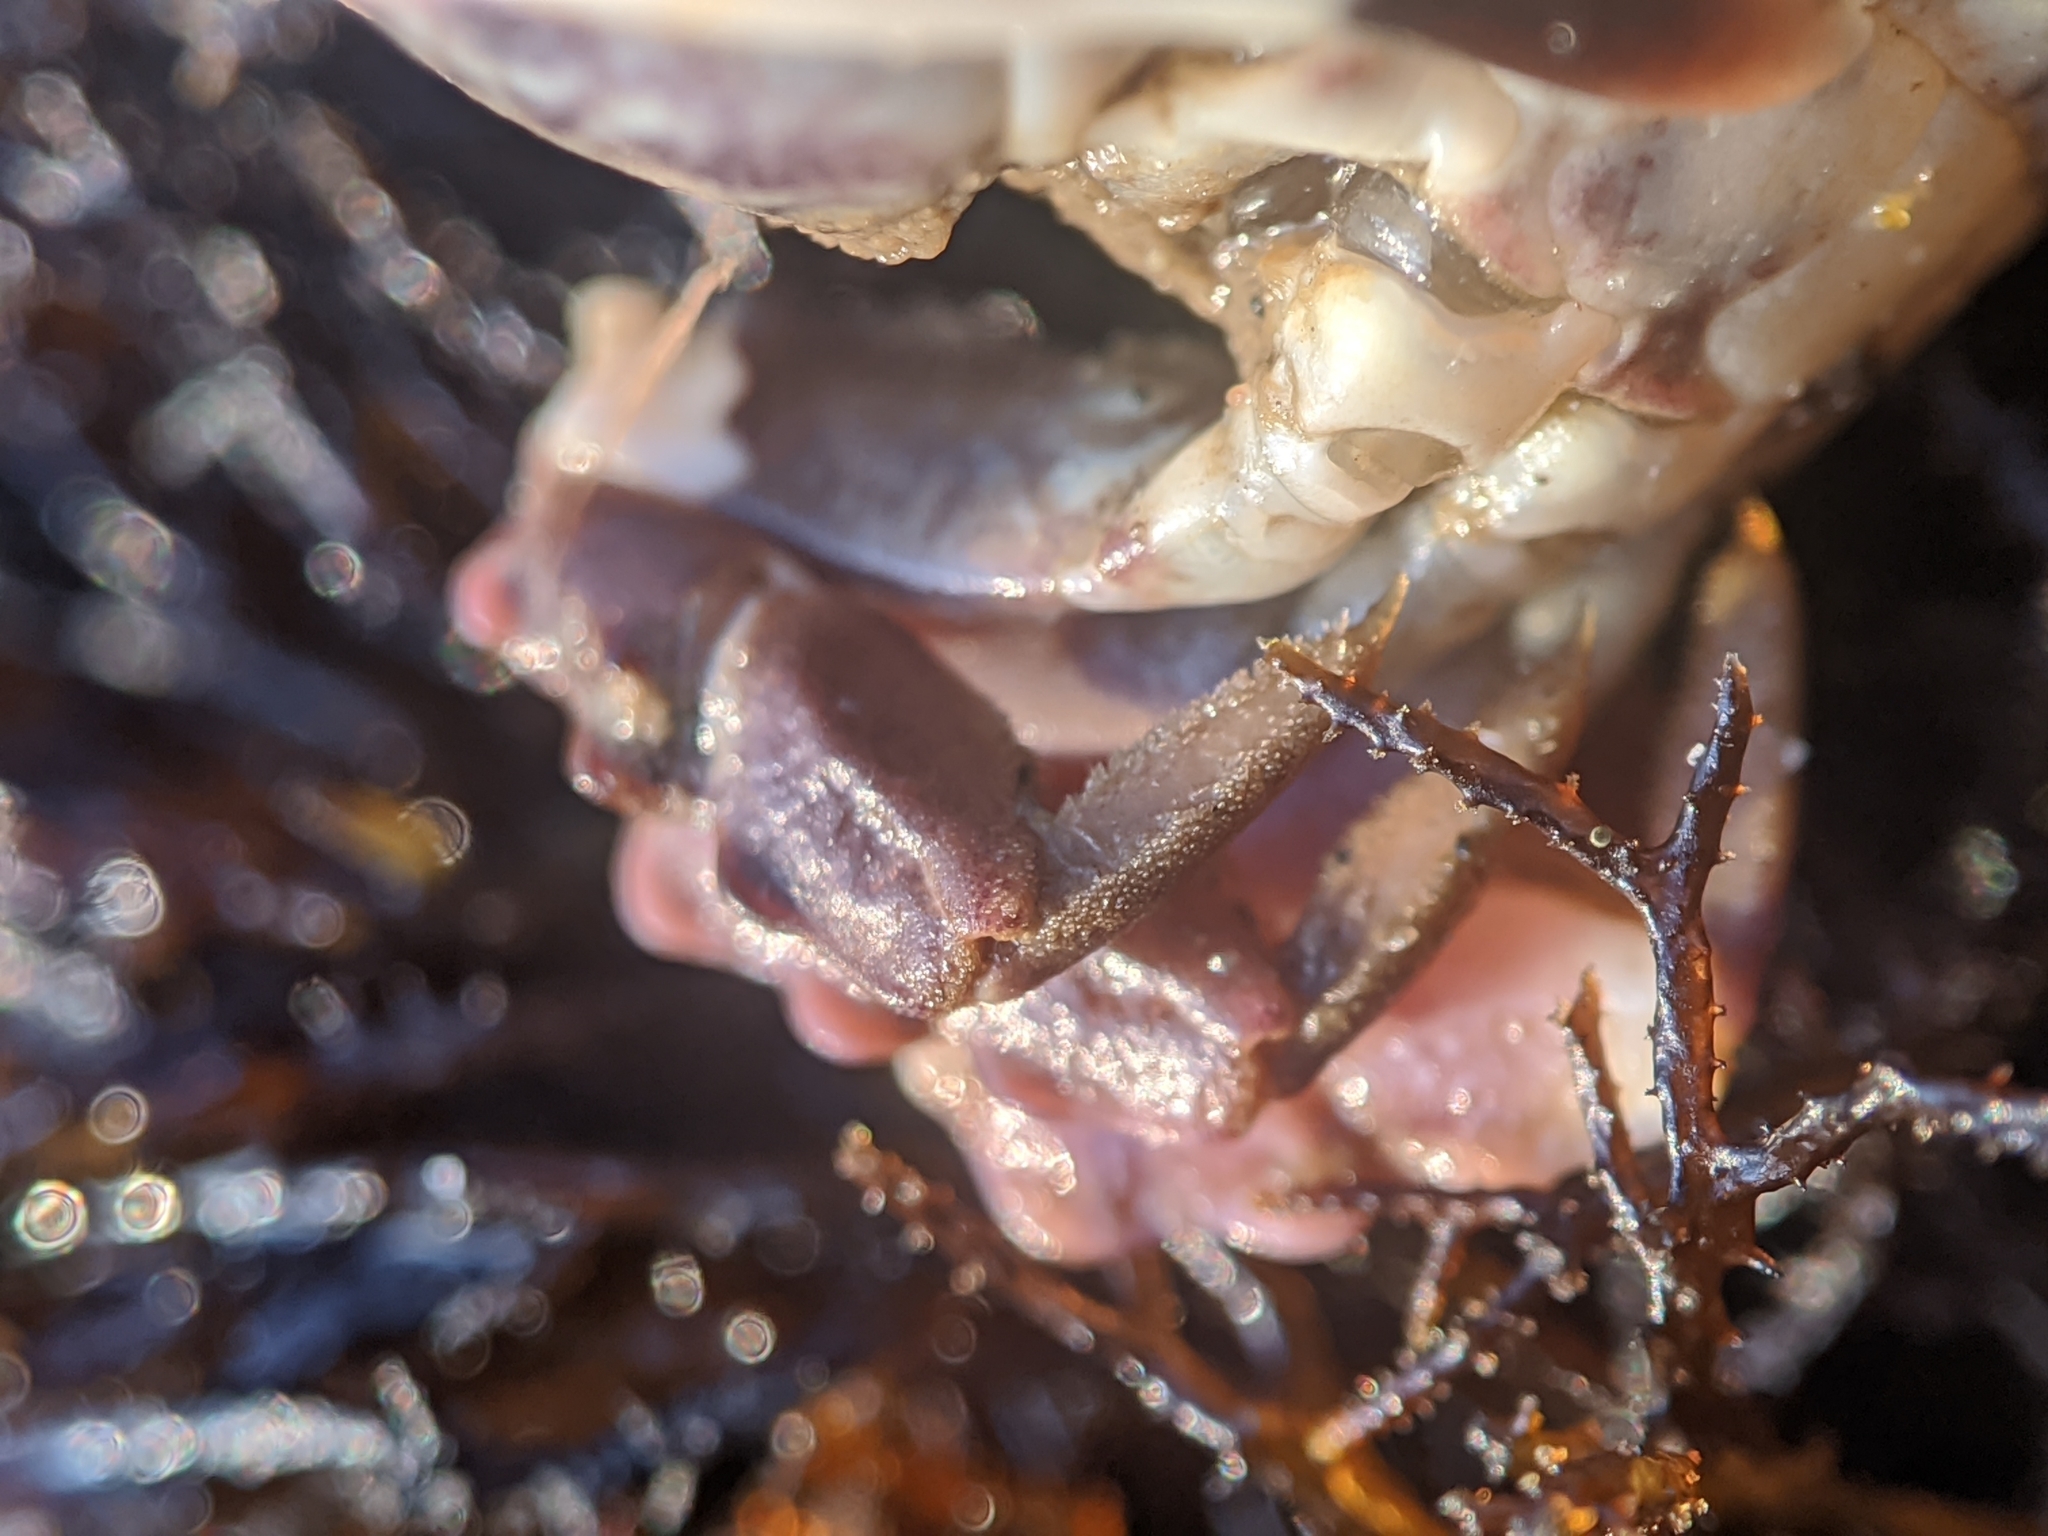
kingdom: Animalia
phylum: Arthropoda
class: Malacostraca
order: Decapoda
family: Panopeidae
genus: Lophopanopeus
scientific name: Lophopanopeus leucomanus
